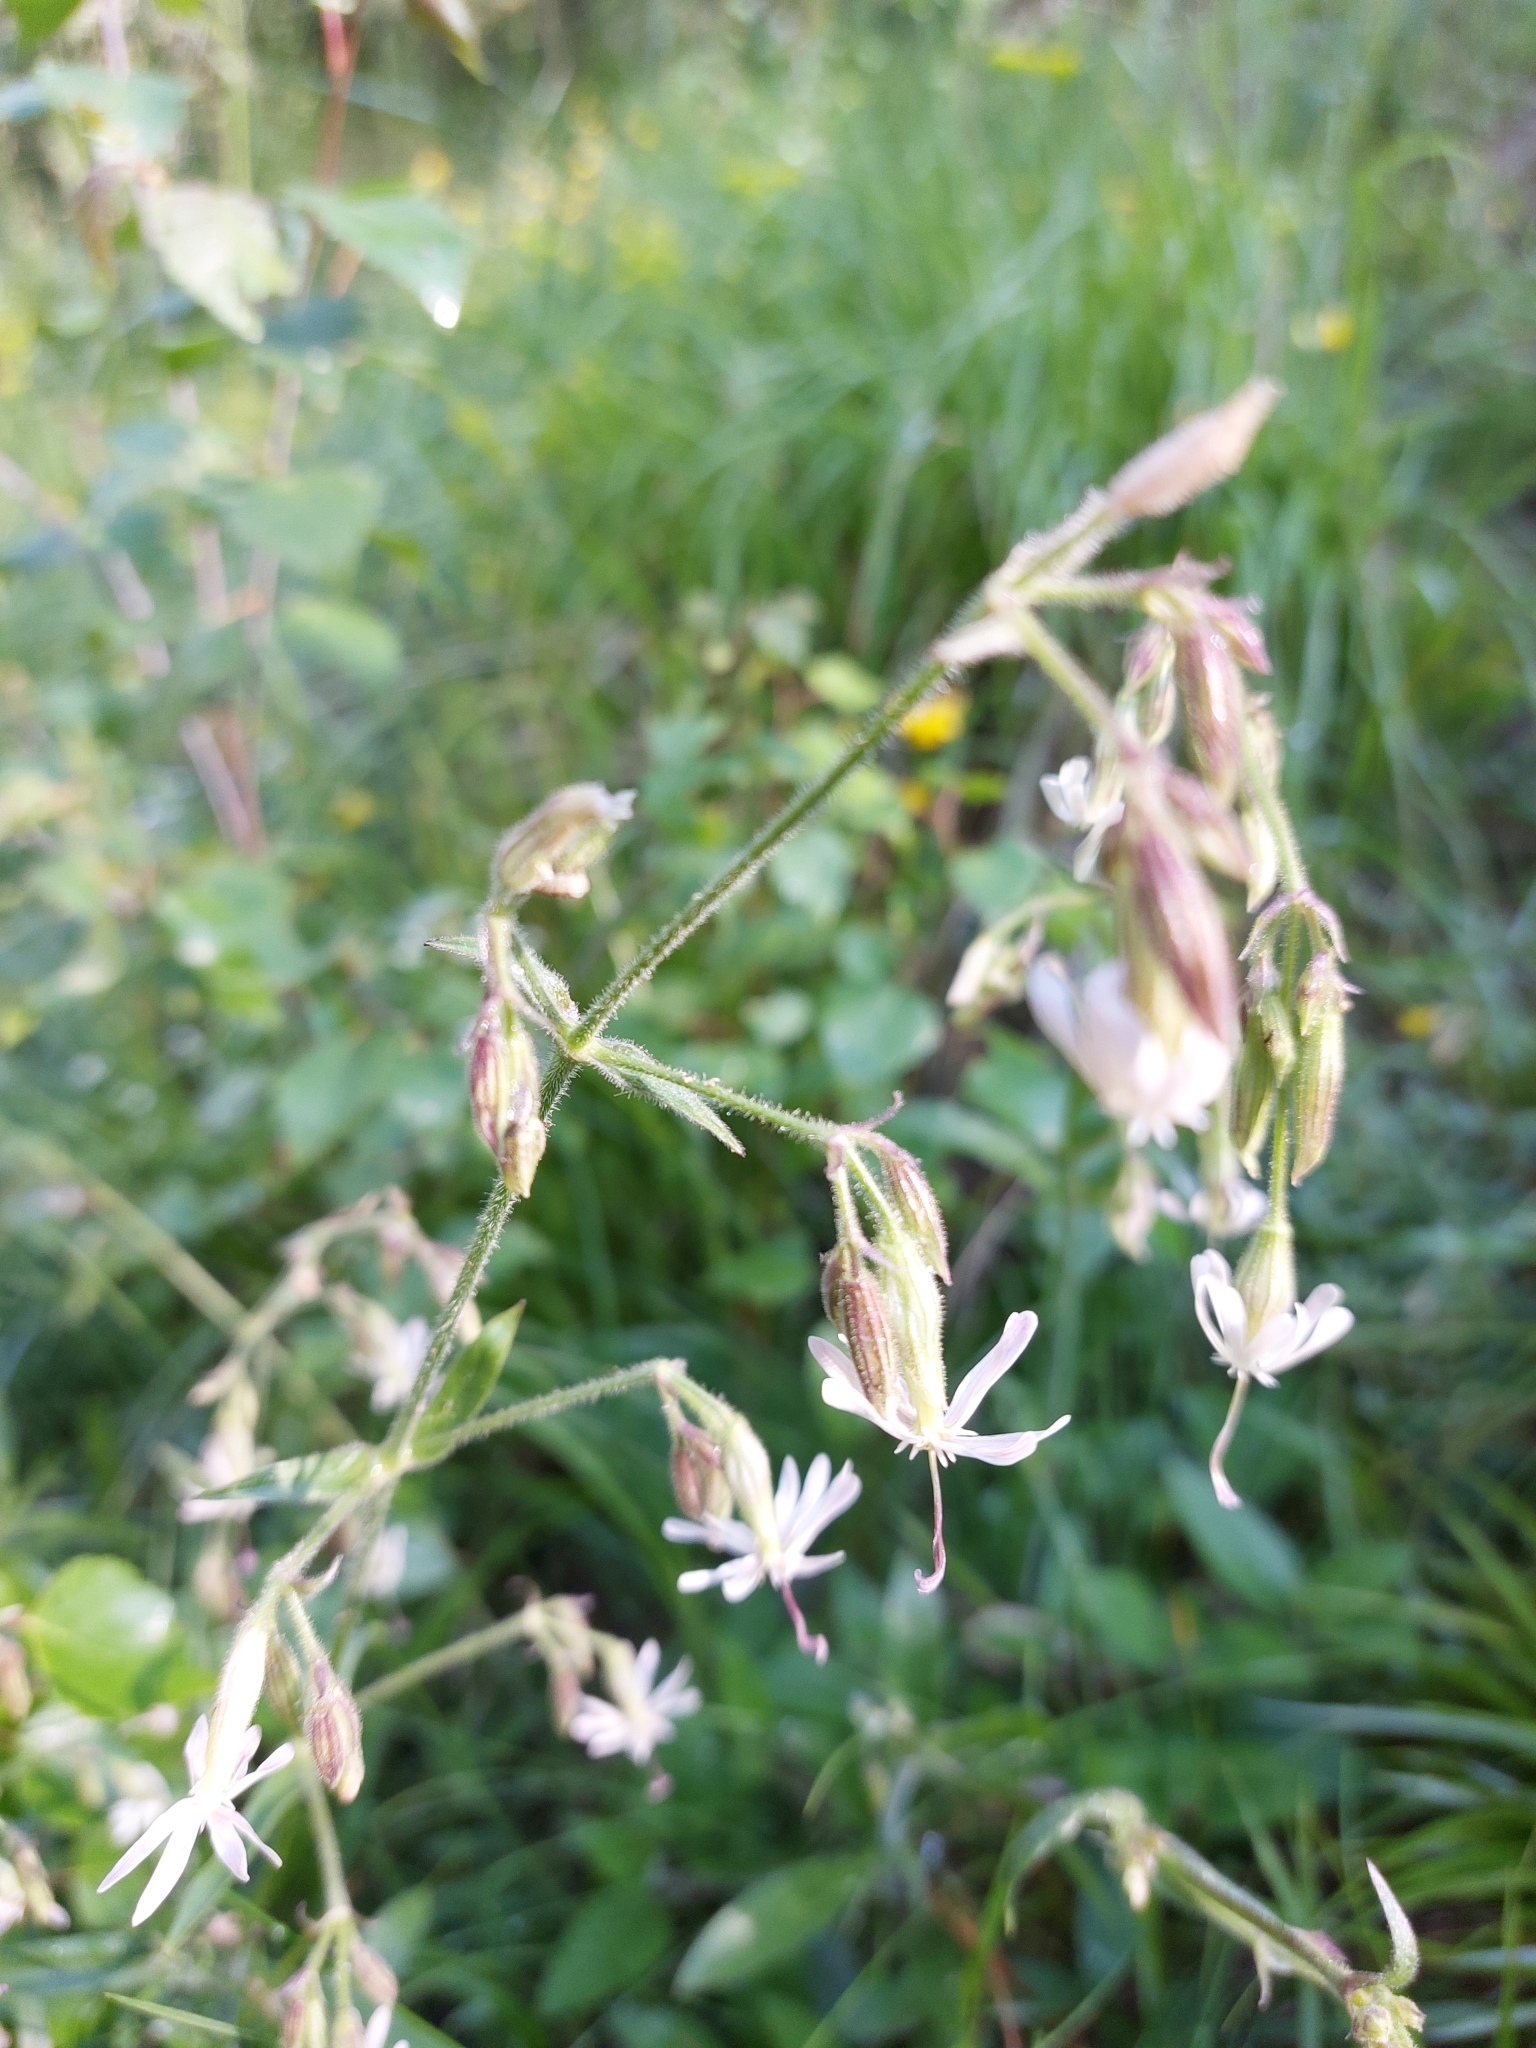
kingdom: Plantae
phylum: Tracheophyta
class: Magnoliopsida
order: Caryophyllales
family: Caryophyllaceae
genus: Silene
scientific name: Silene nutans
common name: Nottingham catchfly
